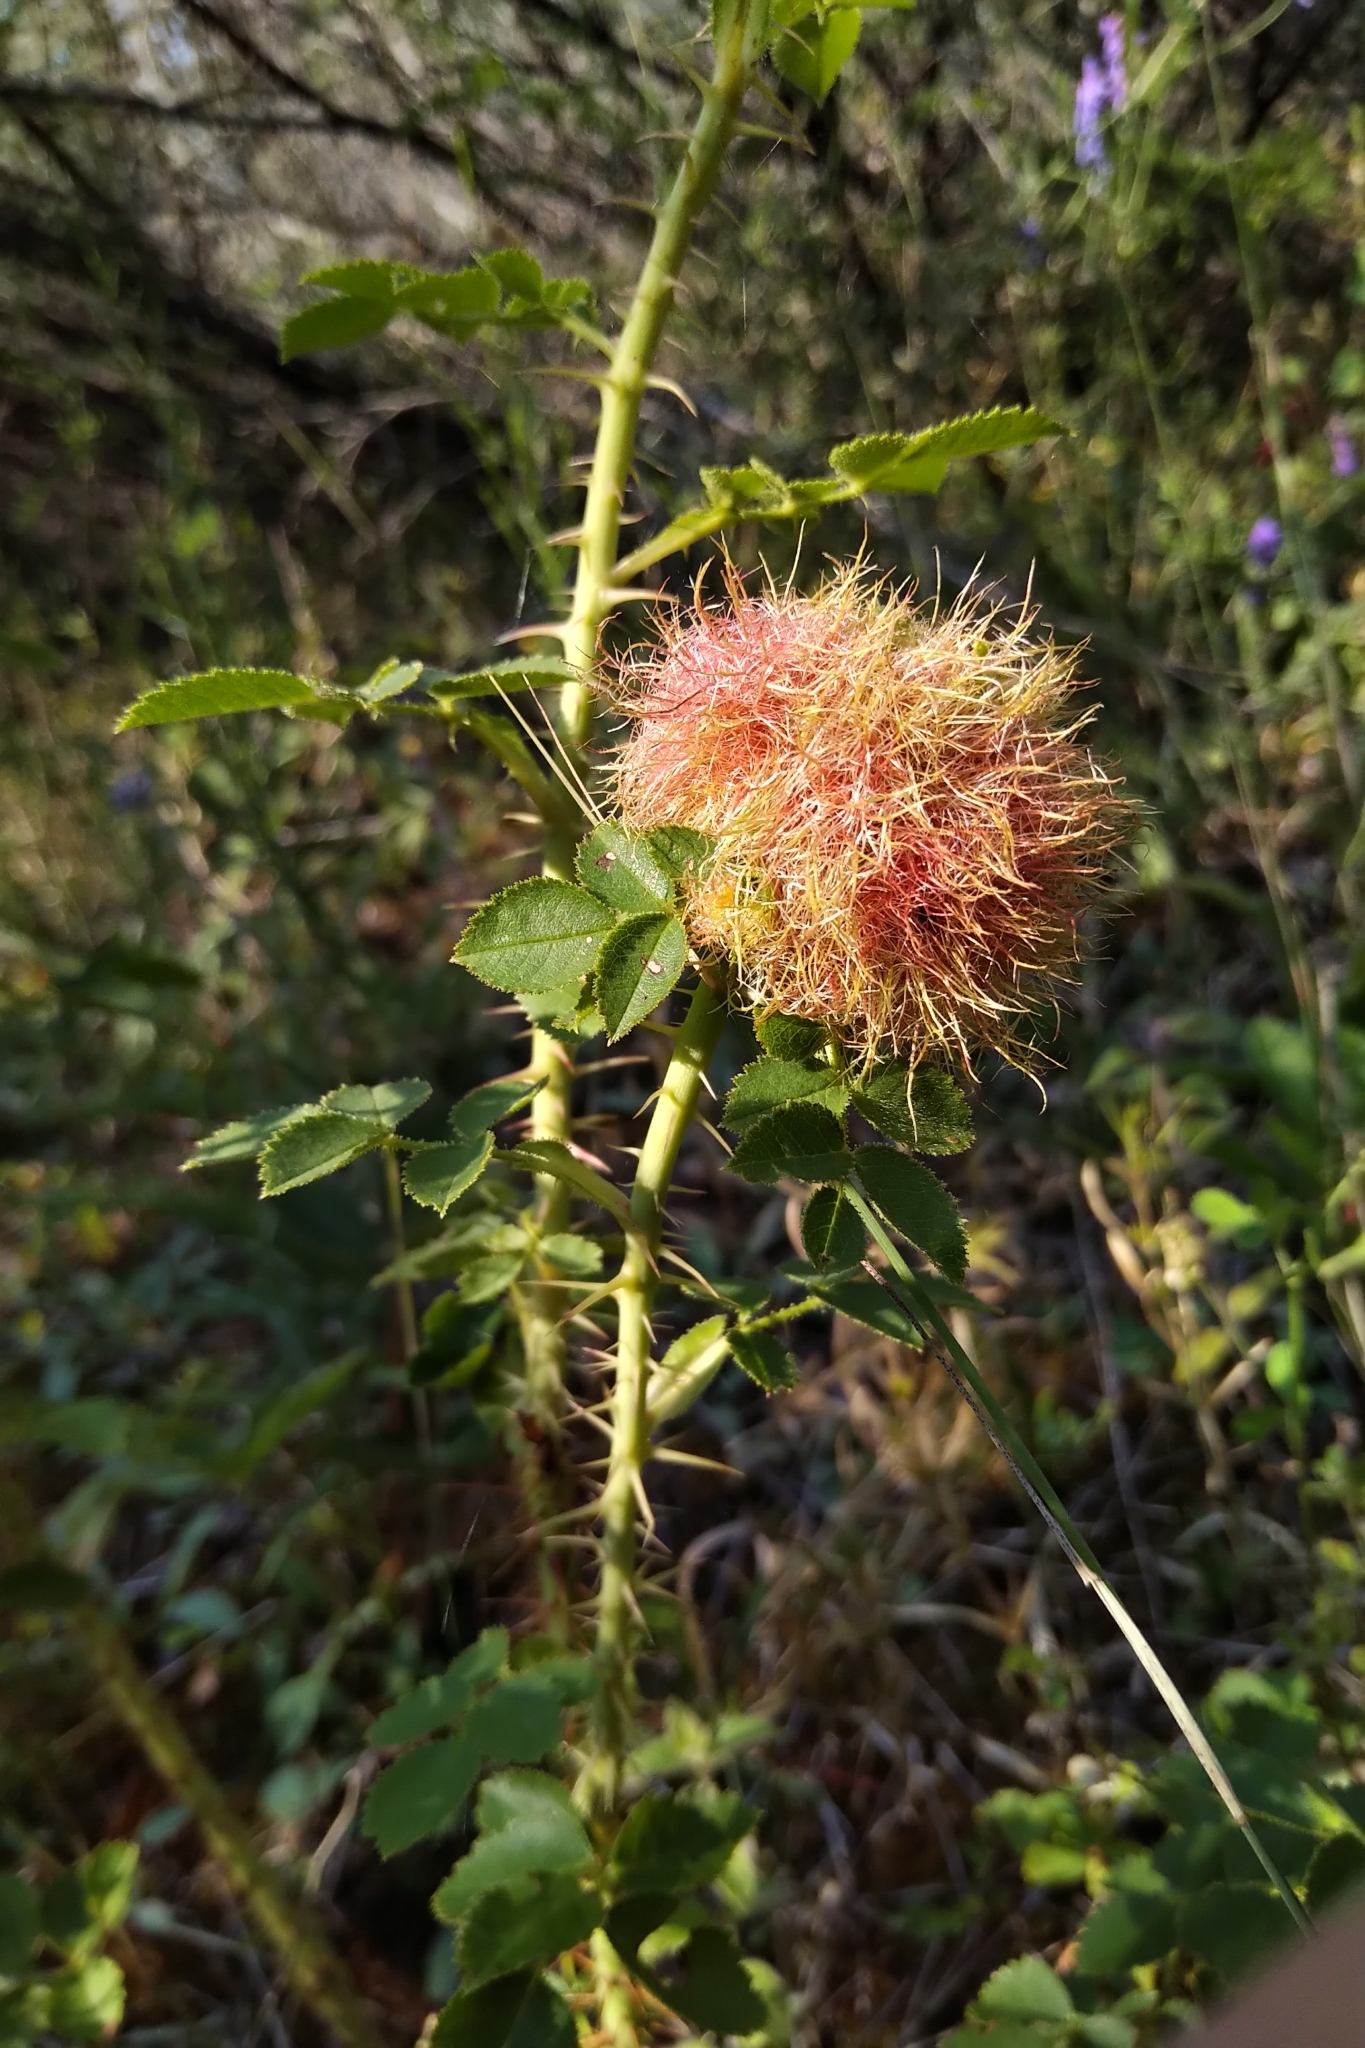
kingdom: Animalia
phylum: Arthropoda
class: Insecta
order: Hymenoptera
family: Cynipidae
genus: Diplolepis
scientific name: Diplolepis rosae
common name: Bedeguar gall
